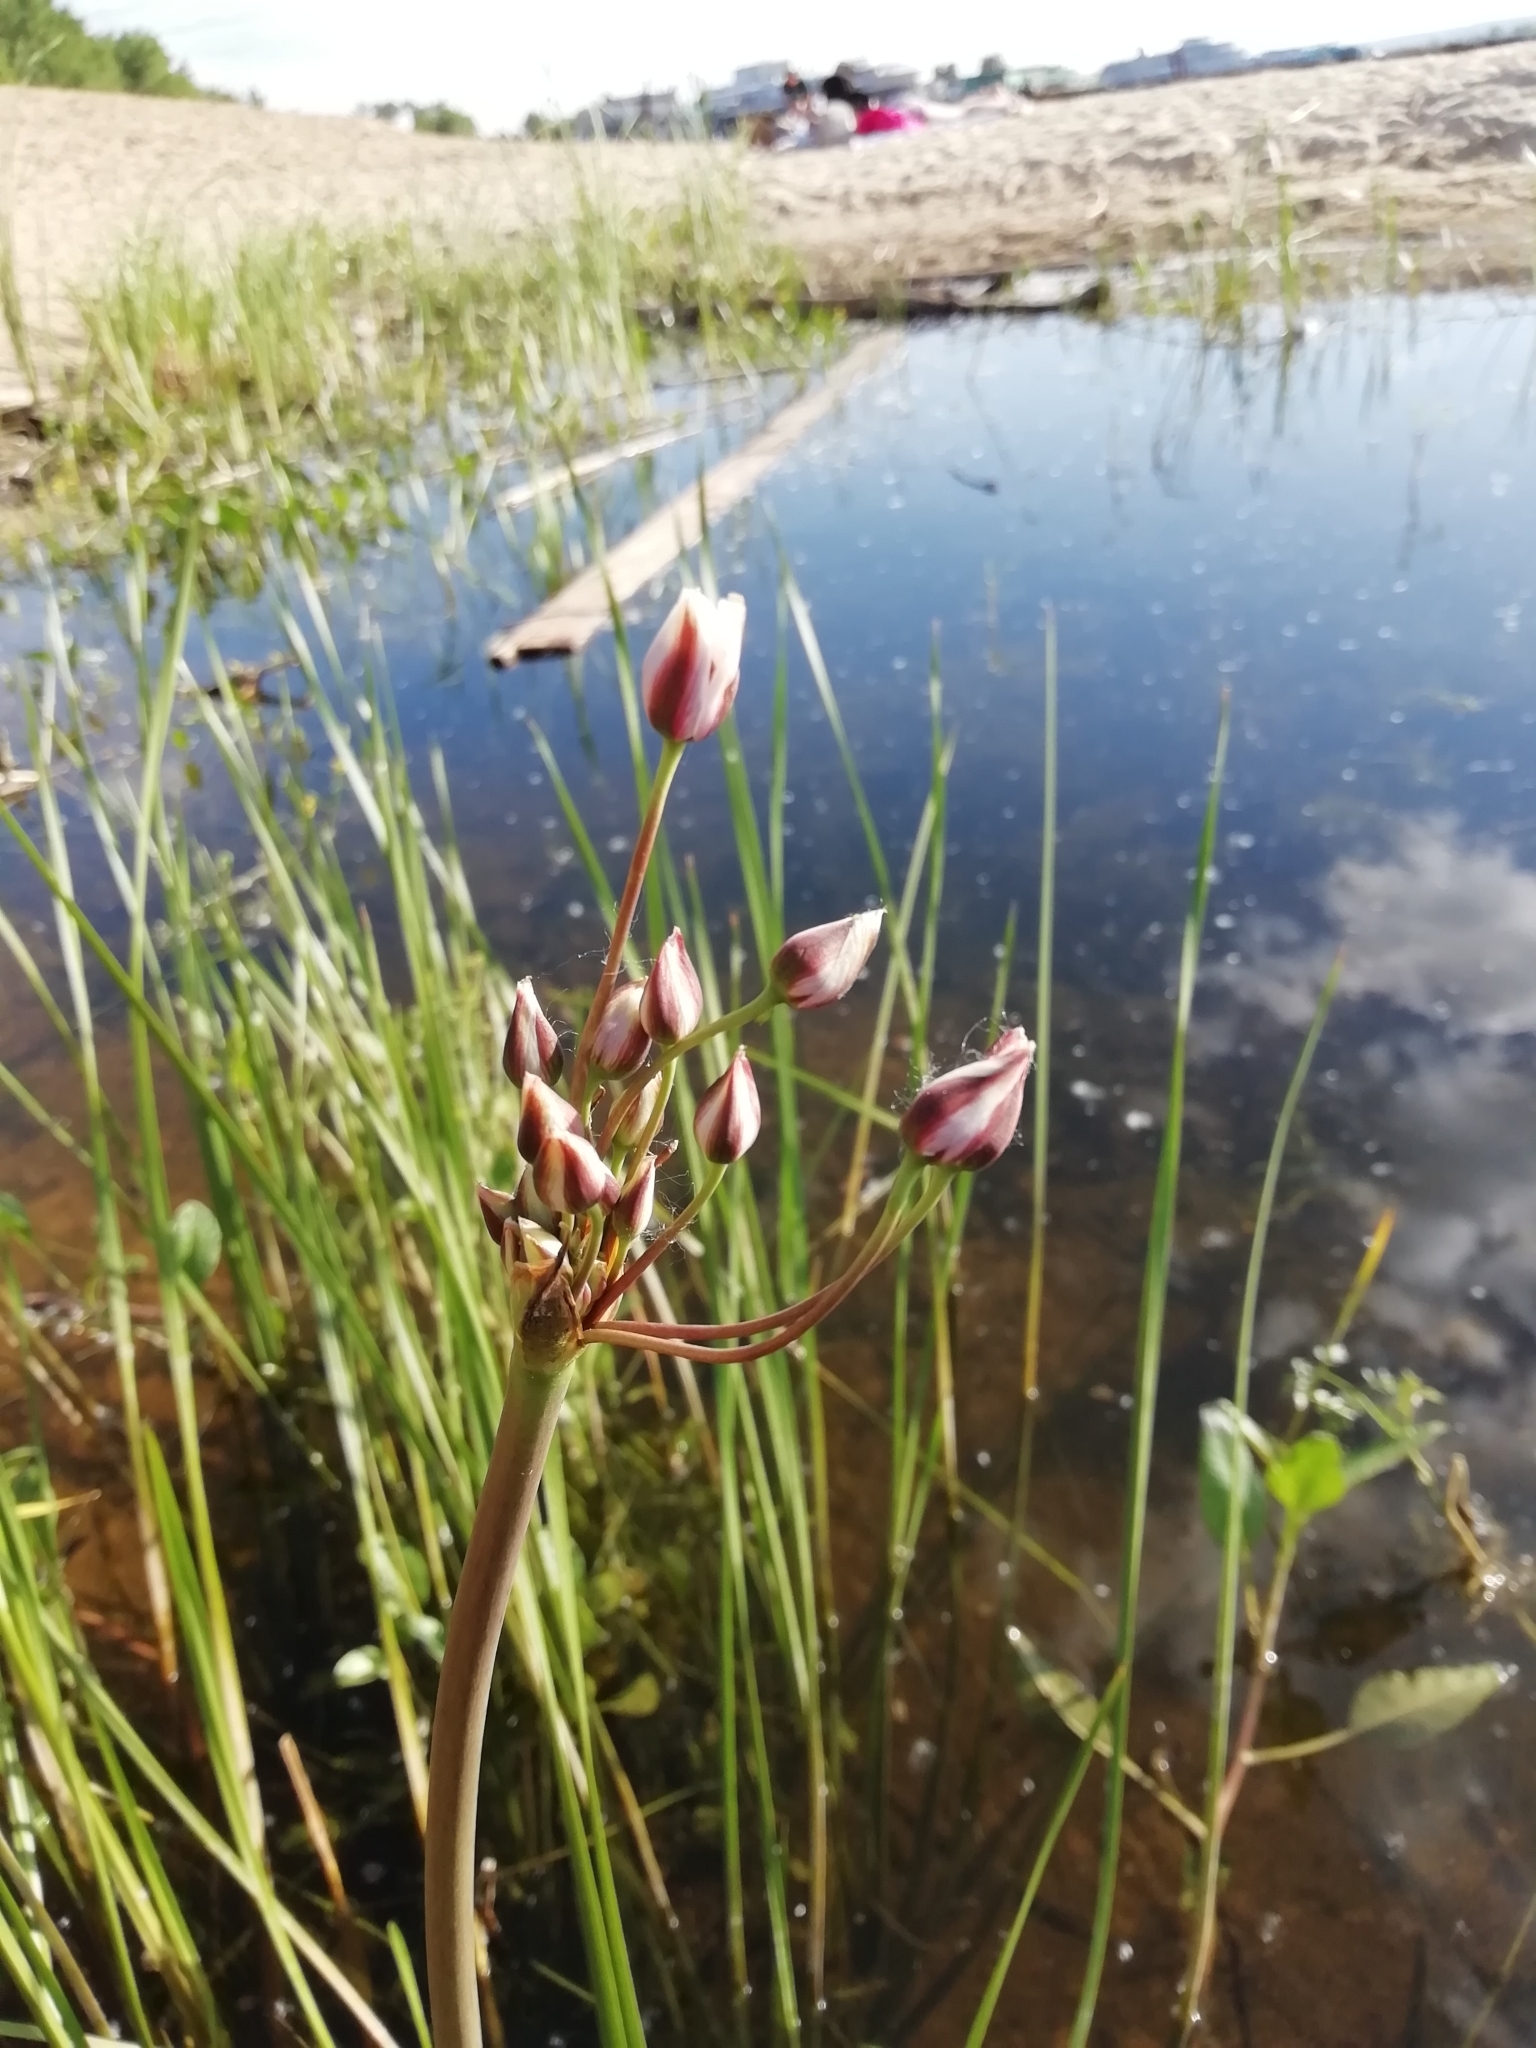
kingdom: Plantae
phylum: Tracheophyta
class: Liliopsida
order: Alismatales
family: Butomaceae
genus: Butomus
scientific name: Butomus umbellatus
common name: Flowering-rush
